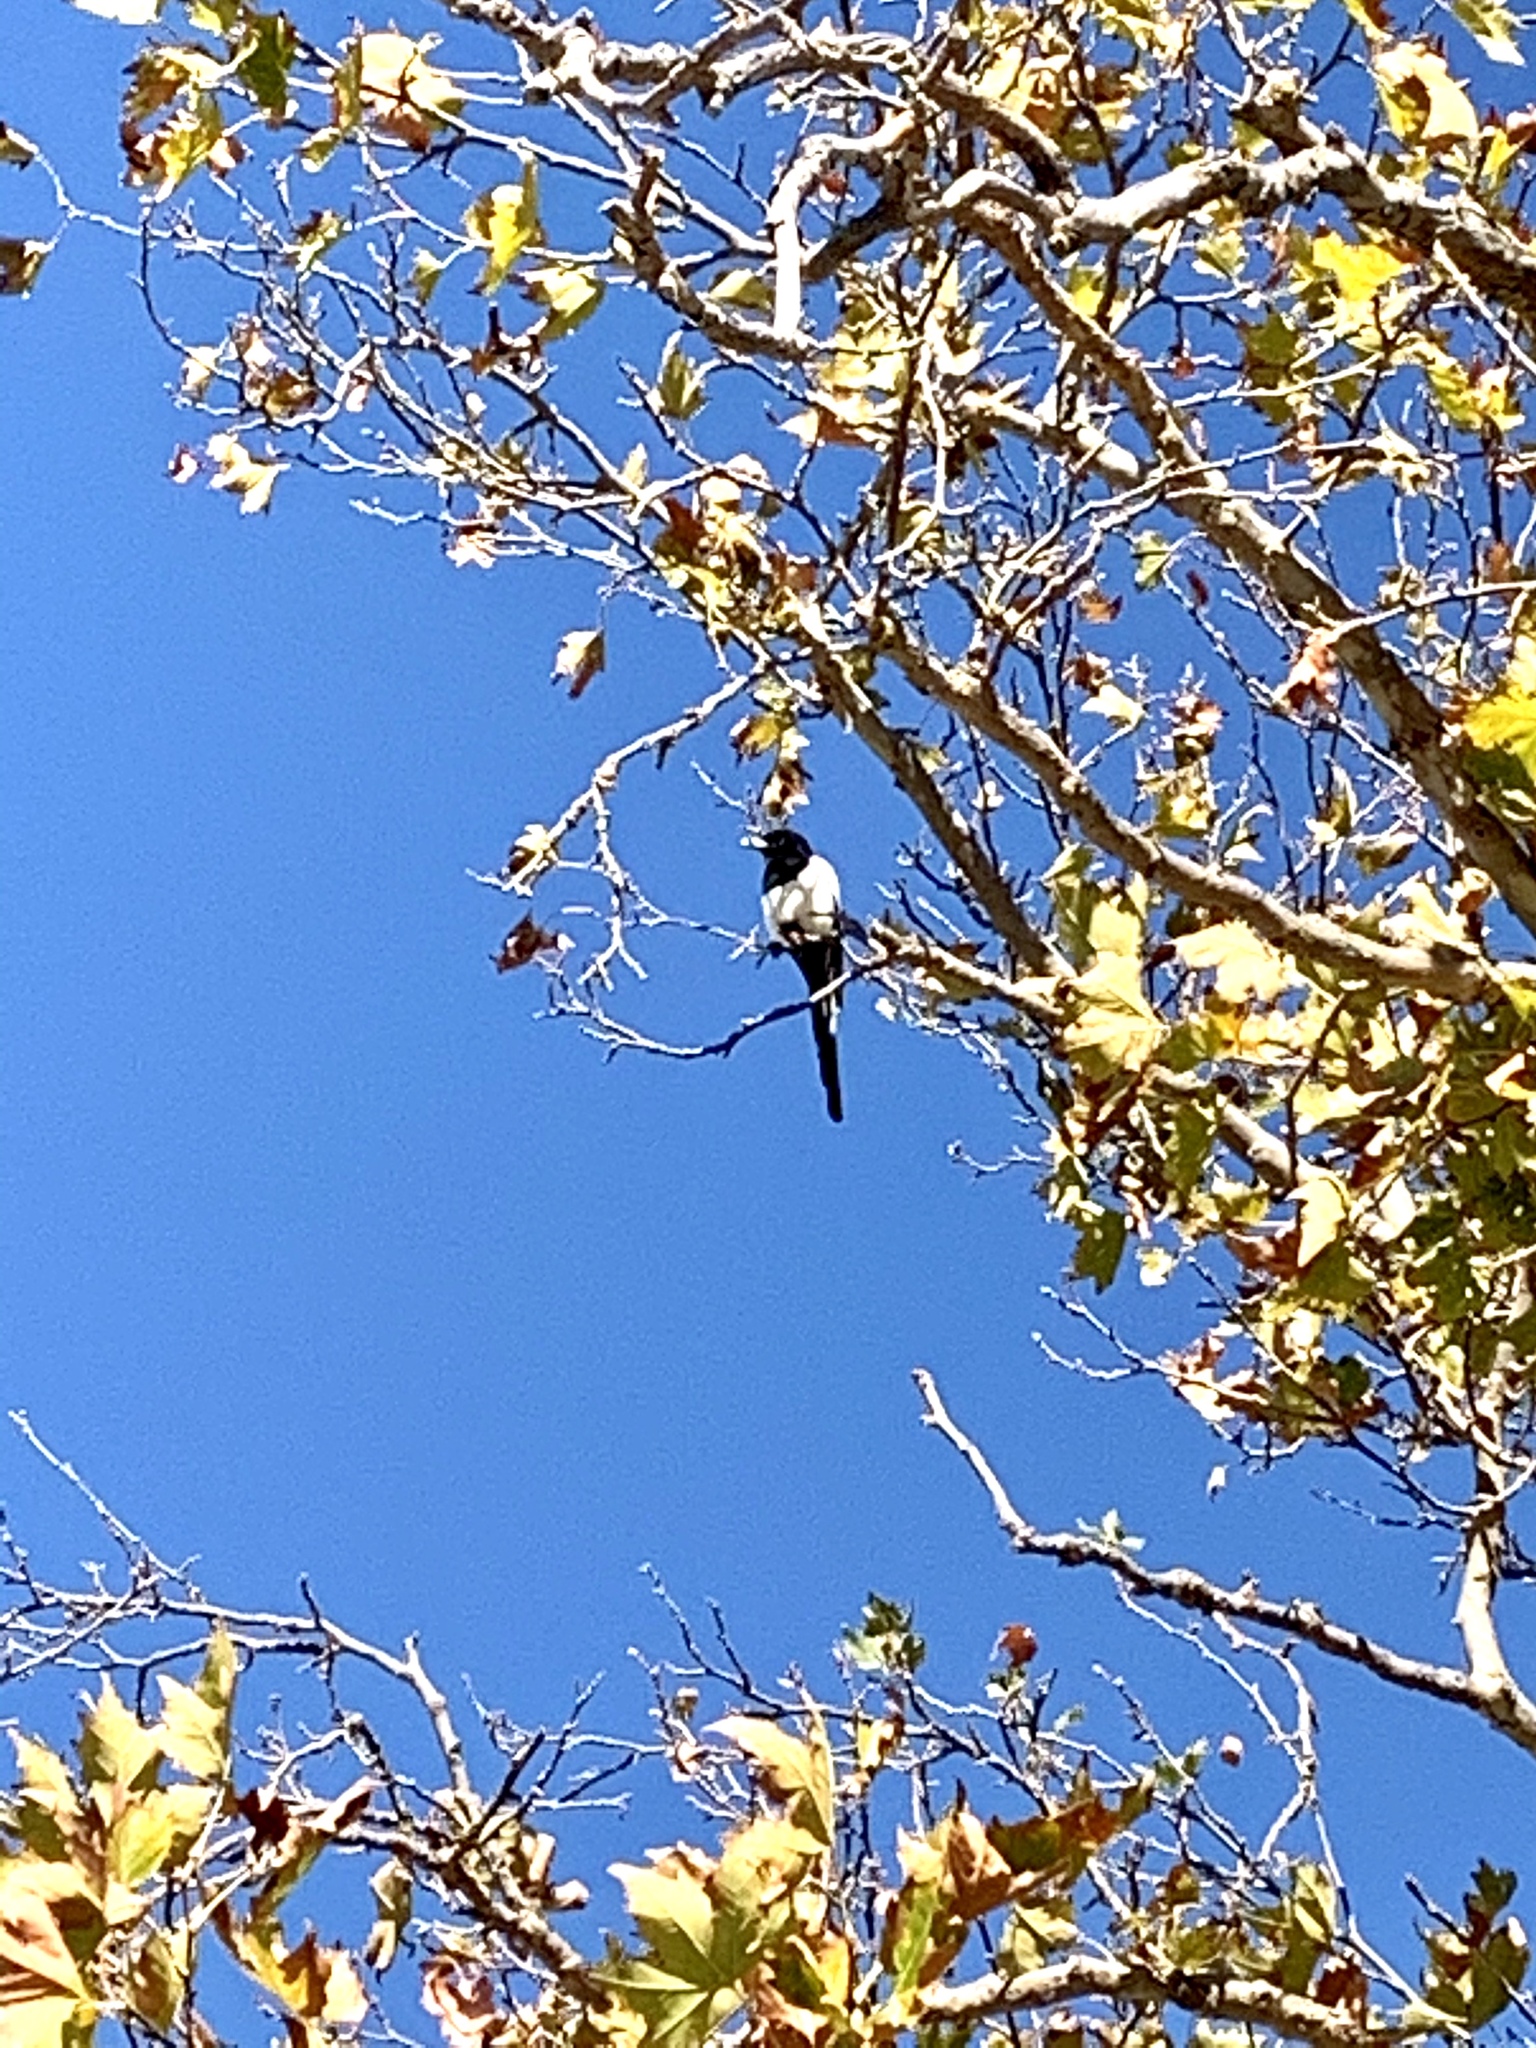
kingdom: Animalia
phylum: Chordata
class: Aves
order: Passeriformes
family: Corvidae
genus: Pica
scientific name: Pica nuttalli
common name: Yellow-billed magpie
